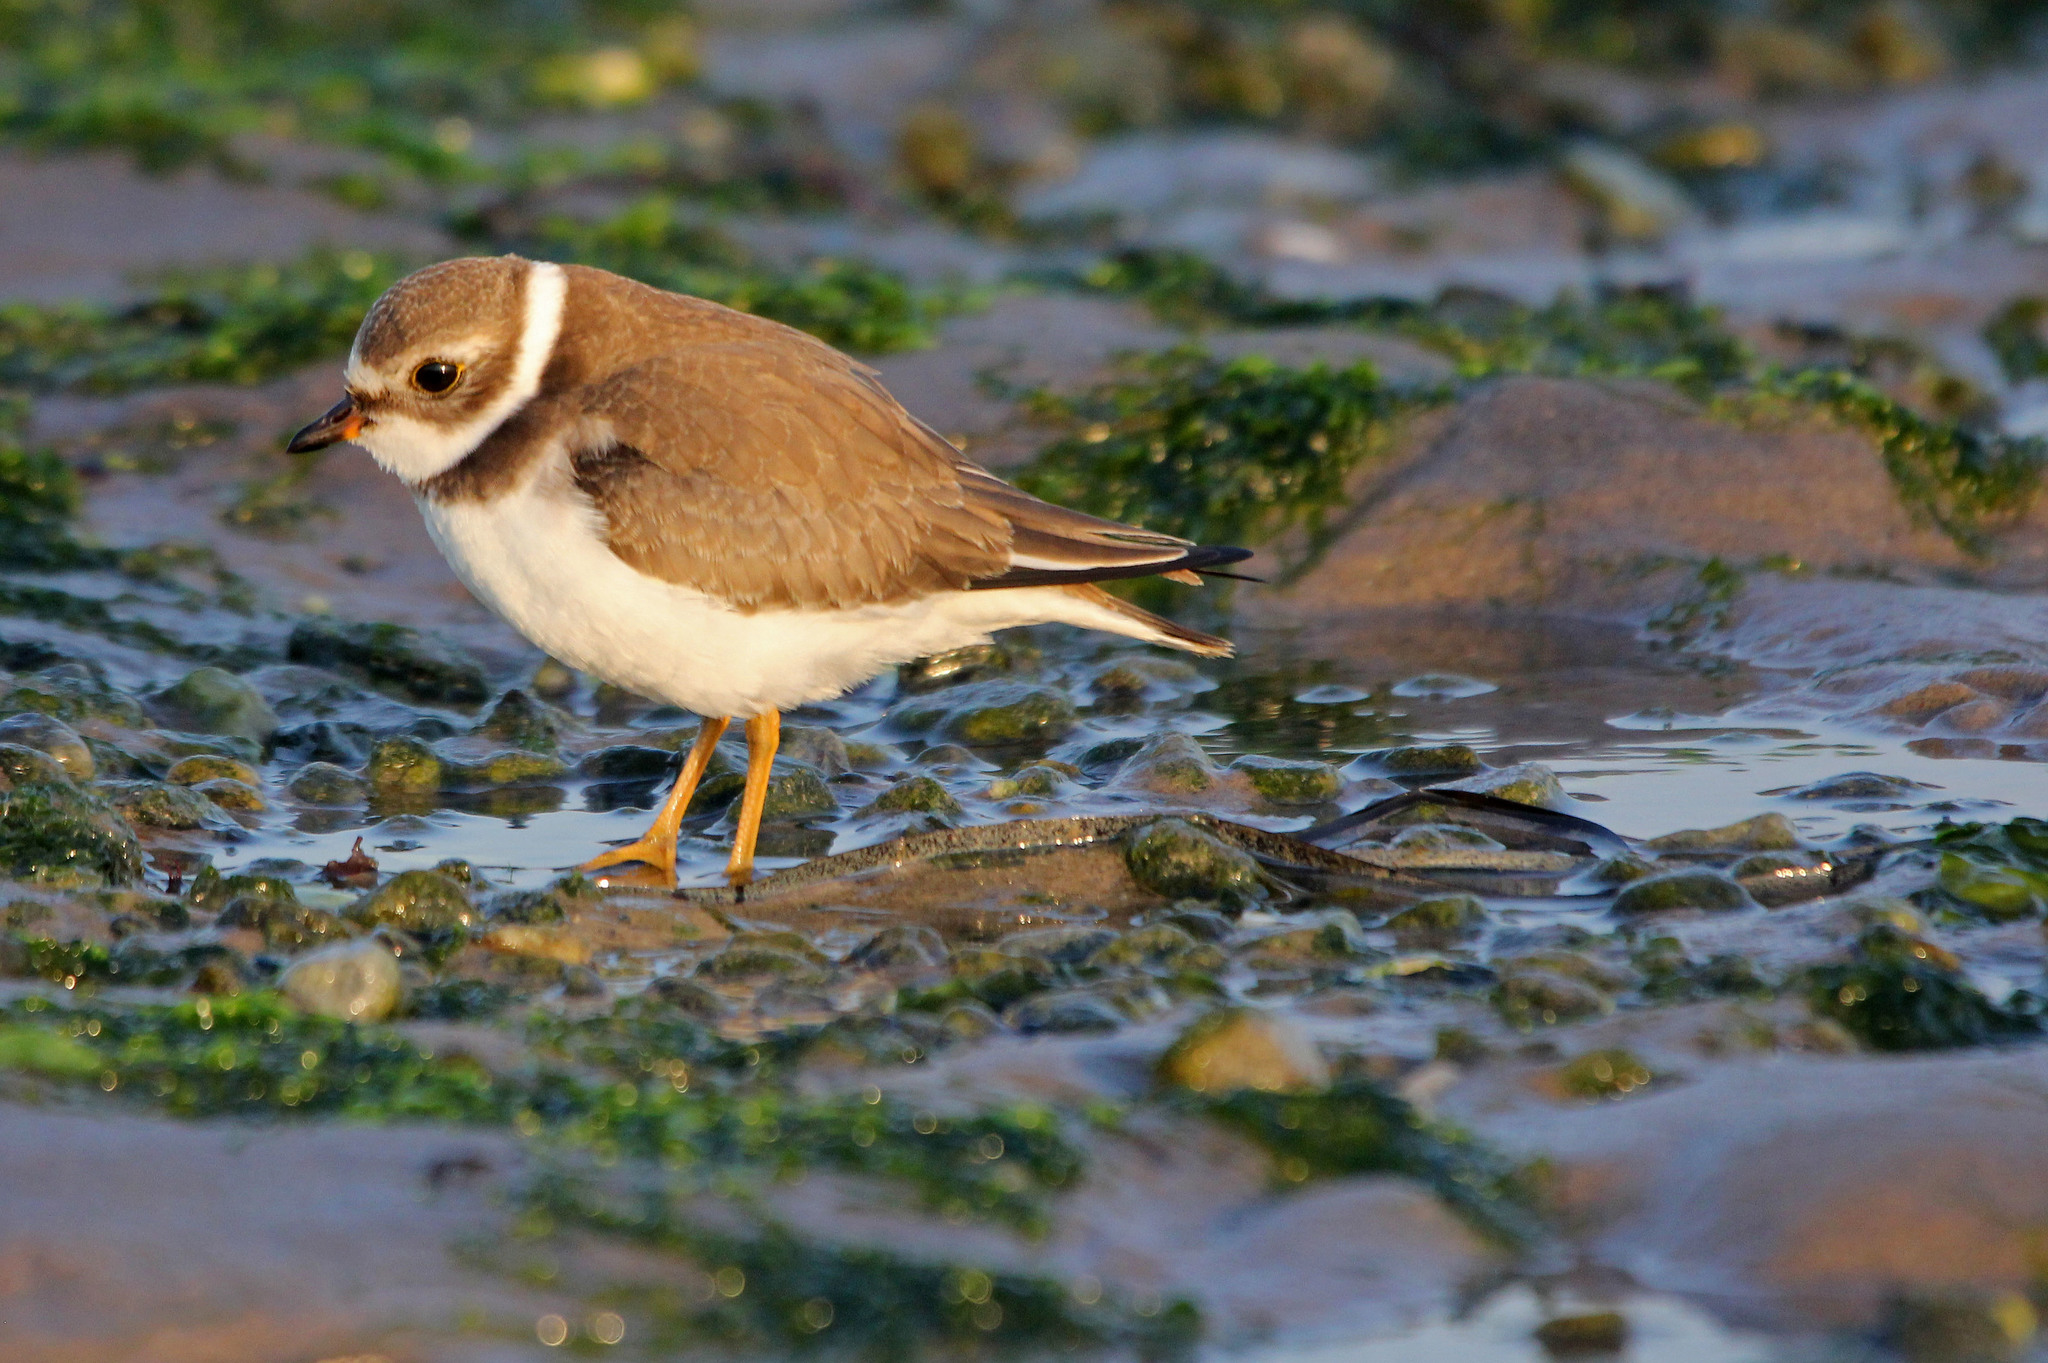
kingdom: Animalia
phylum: Chordata
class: Aves
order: Charadriiformes
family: Charadriidae
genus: Charadrius
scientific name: Charadrius semipalmatus
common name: Semipalmated plover
